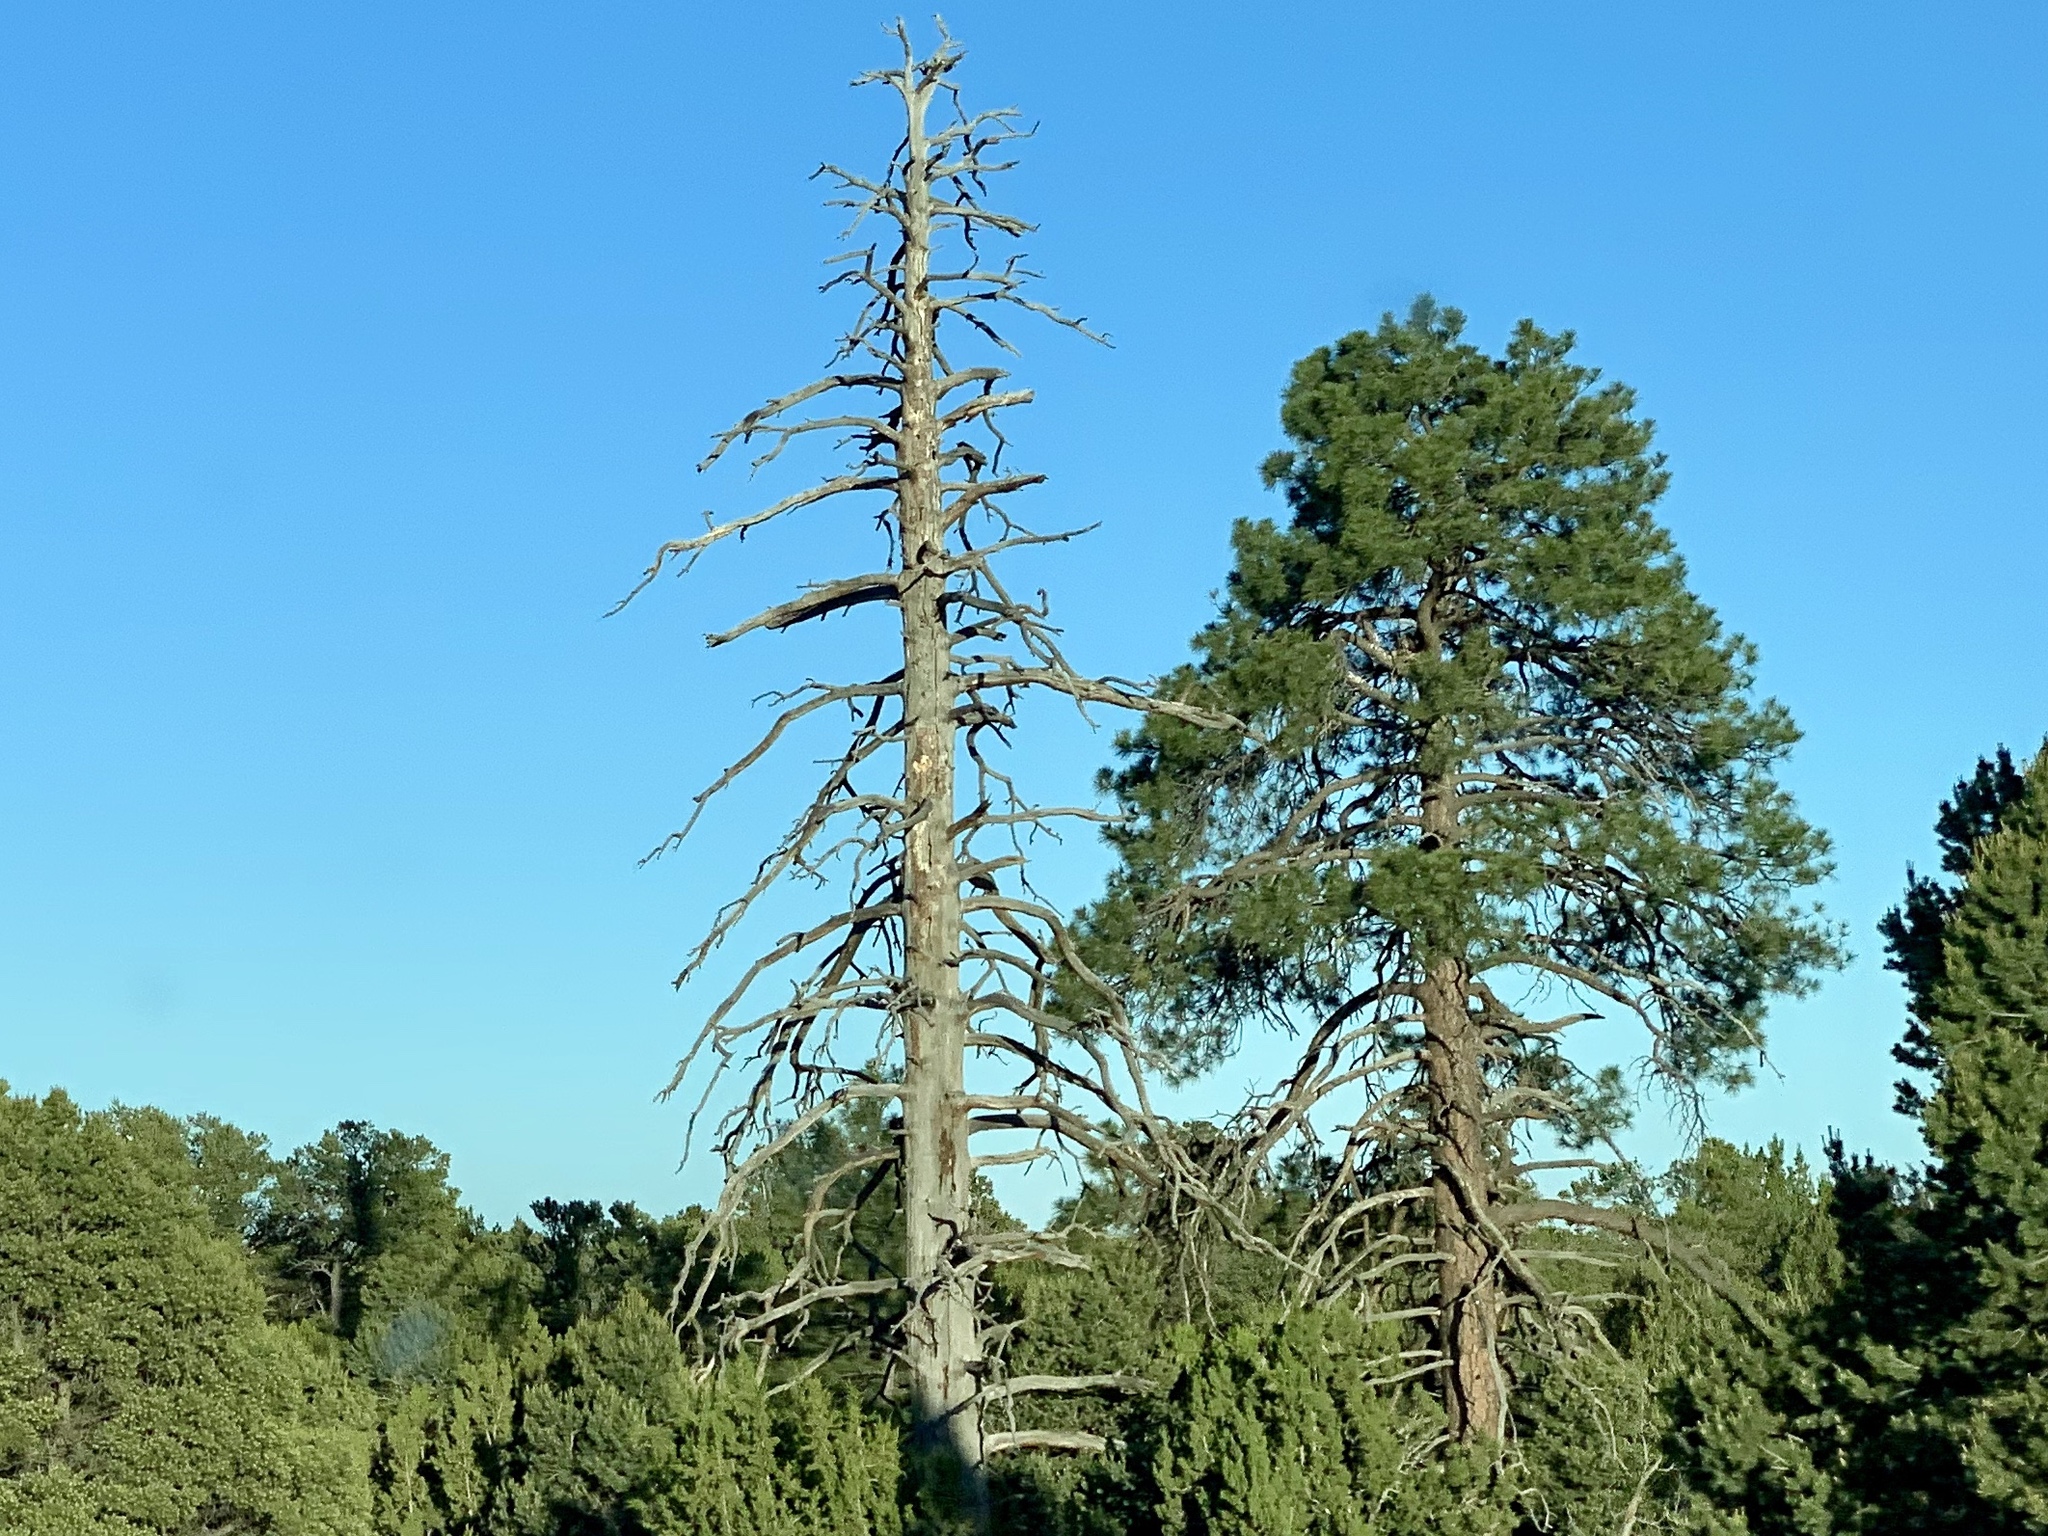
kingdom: Plantae
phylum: Tracheophyta
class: Pinopsida
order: Pinales
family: Pinaceae
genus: Pinus
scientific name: Pinus ponderosa
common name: Western yellow-pine
